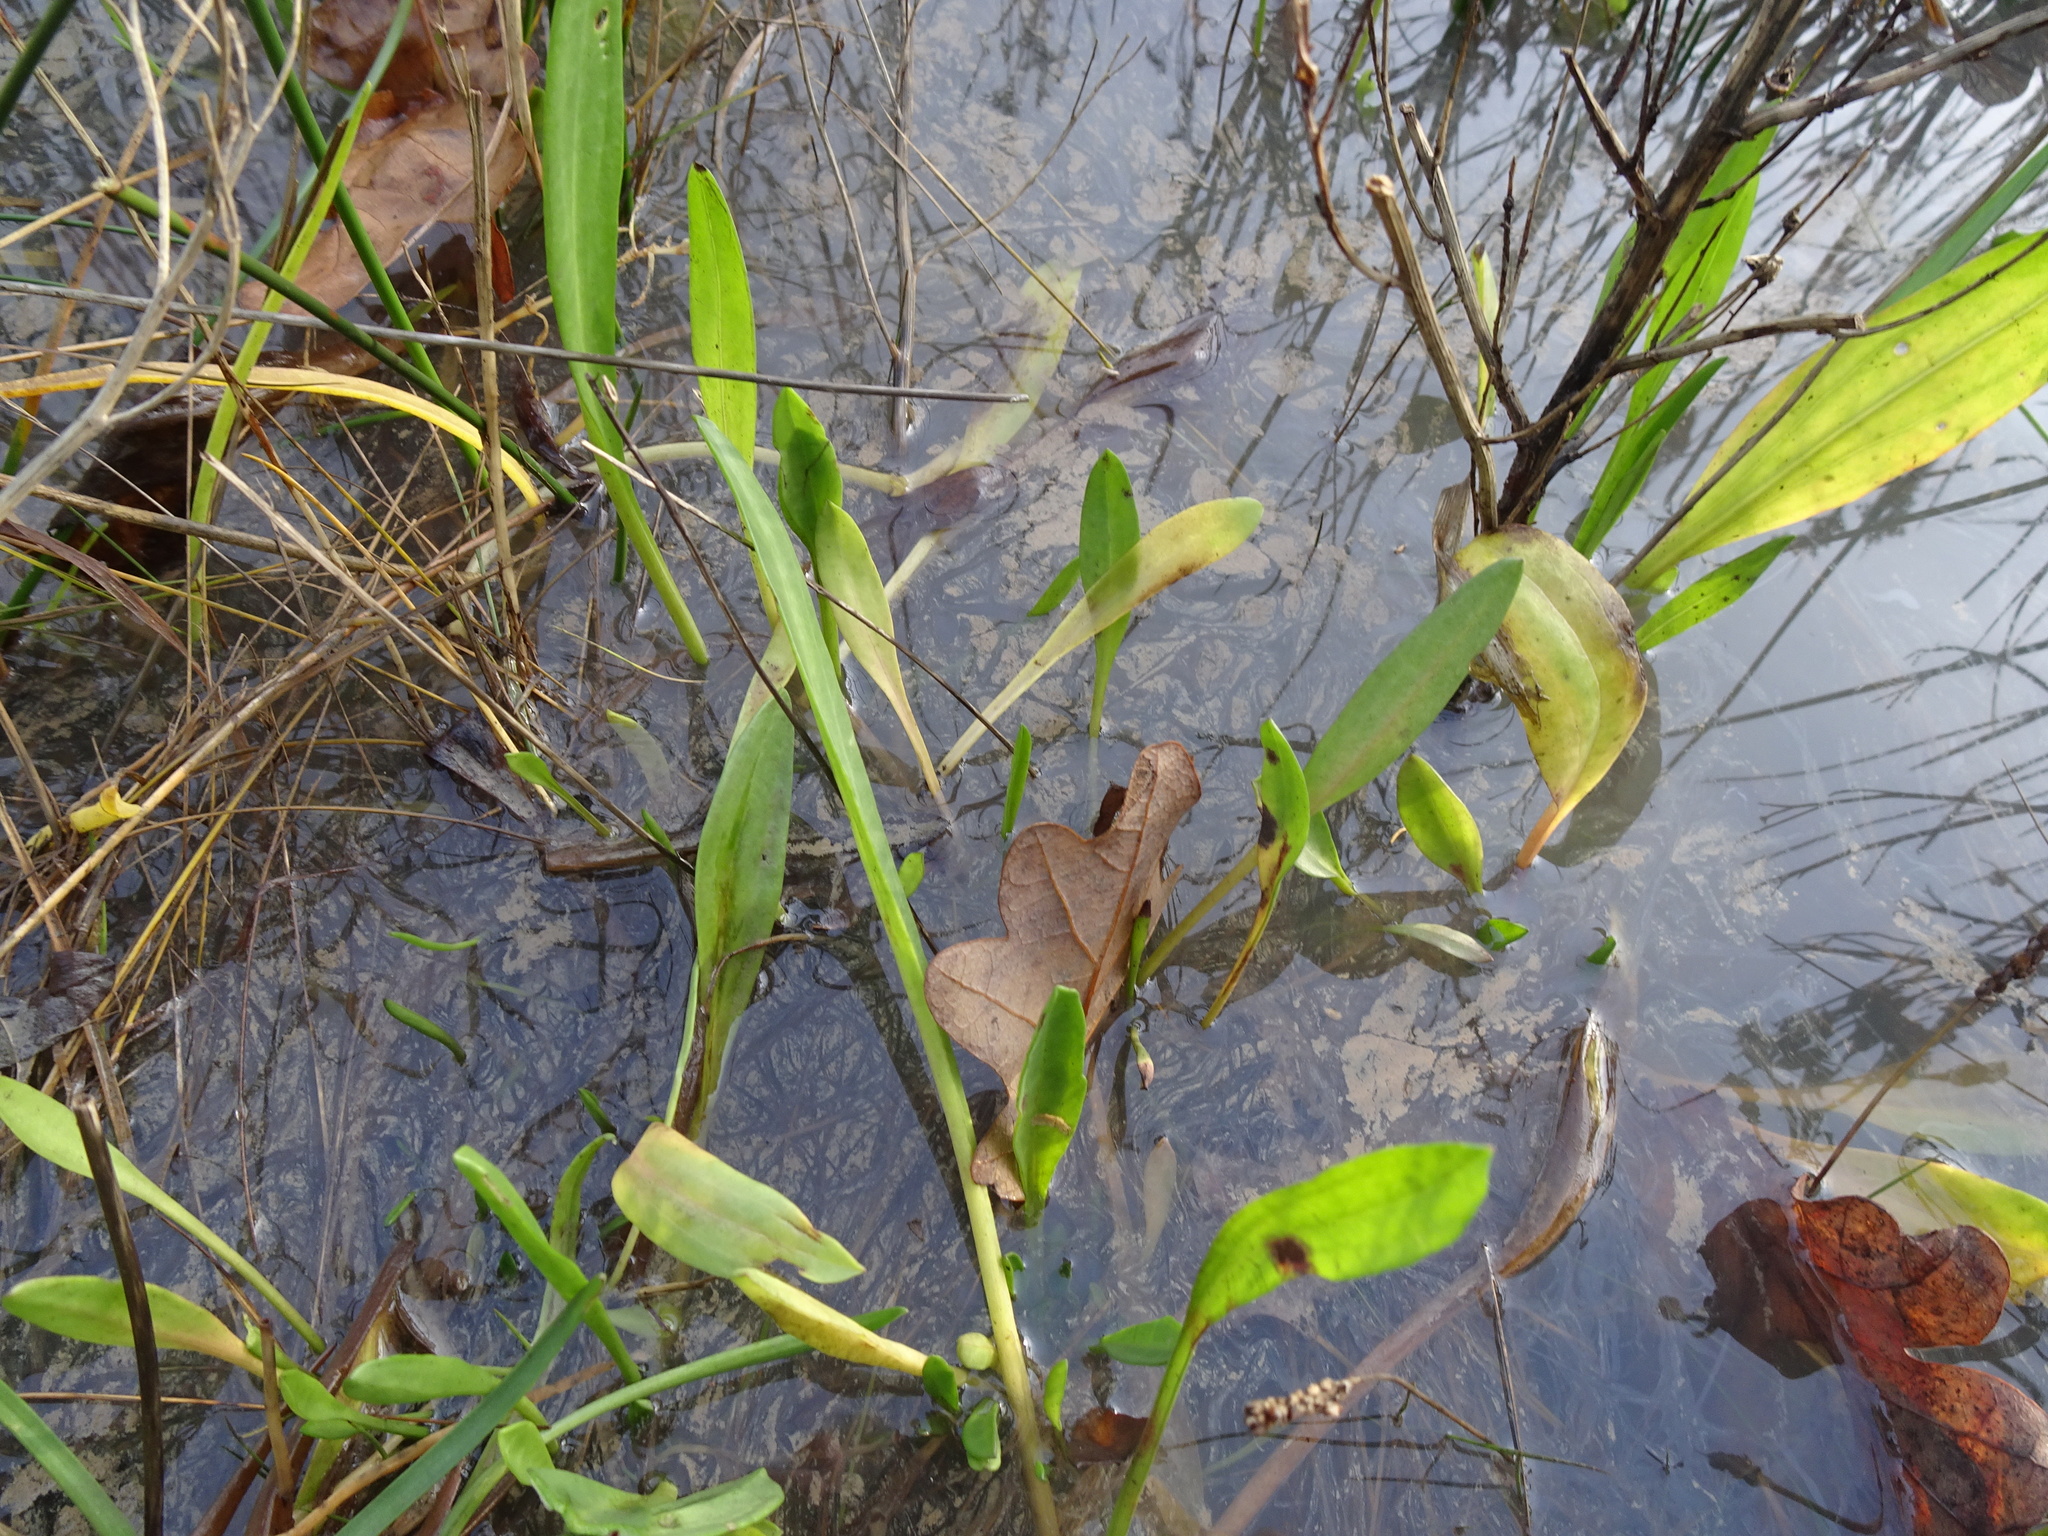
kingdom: Plantae
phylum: Tracheophyta
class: Magnoliopsida
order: Asterales
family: Asteraceae
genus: Tripolium
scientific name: Tripolium pannonicum
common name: Sea aster
